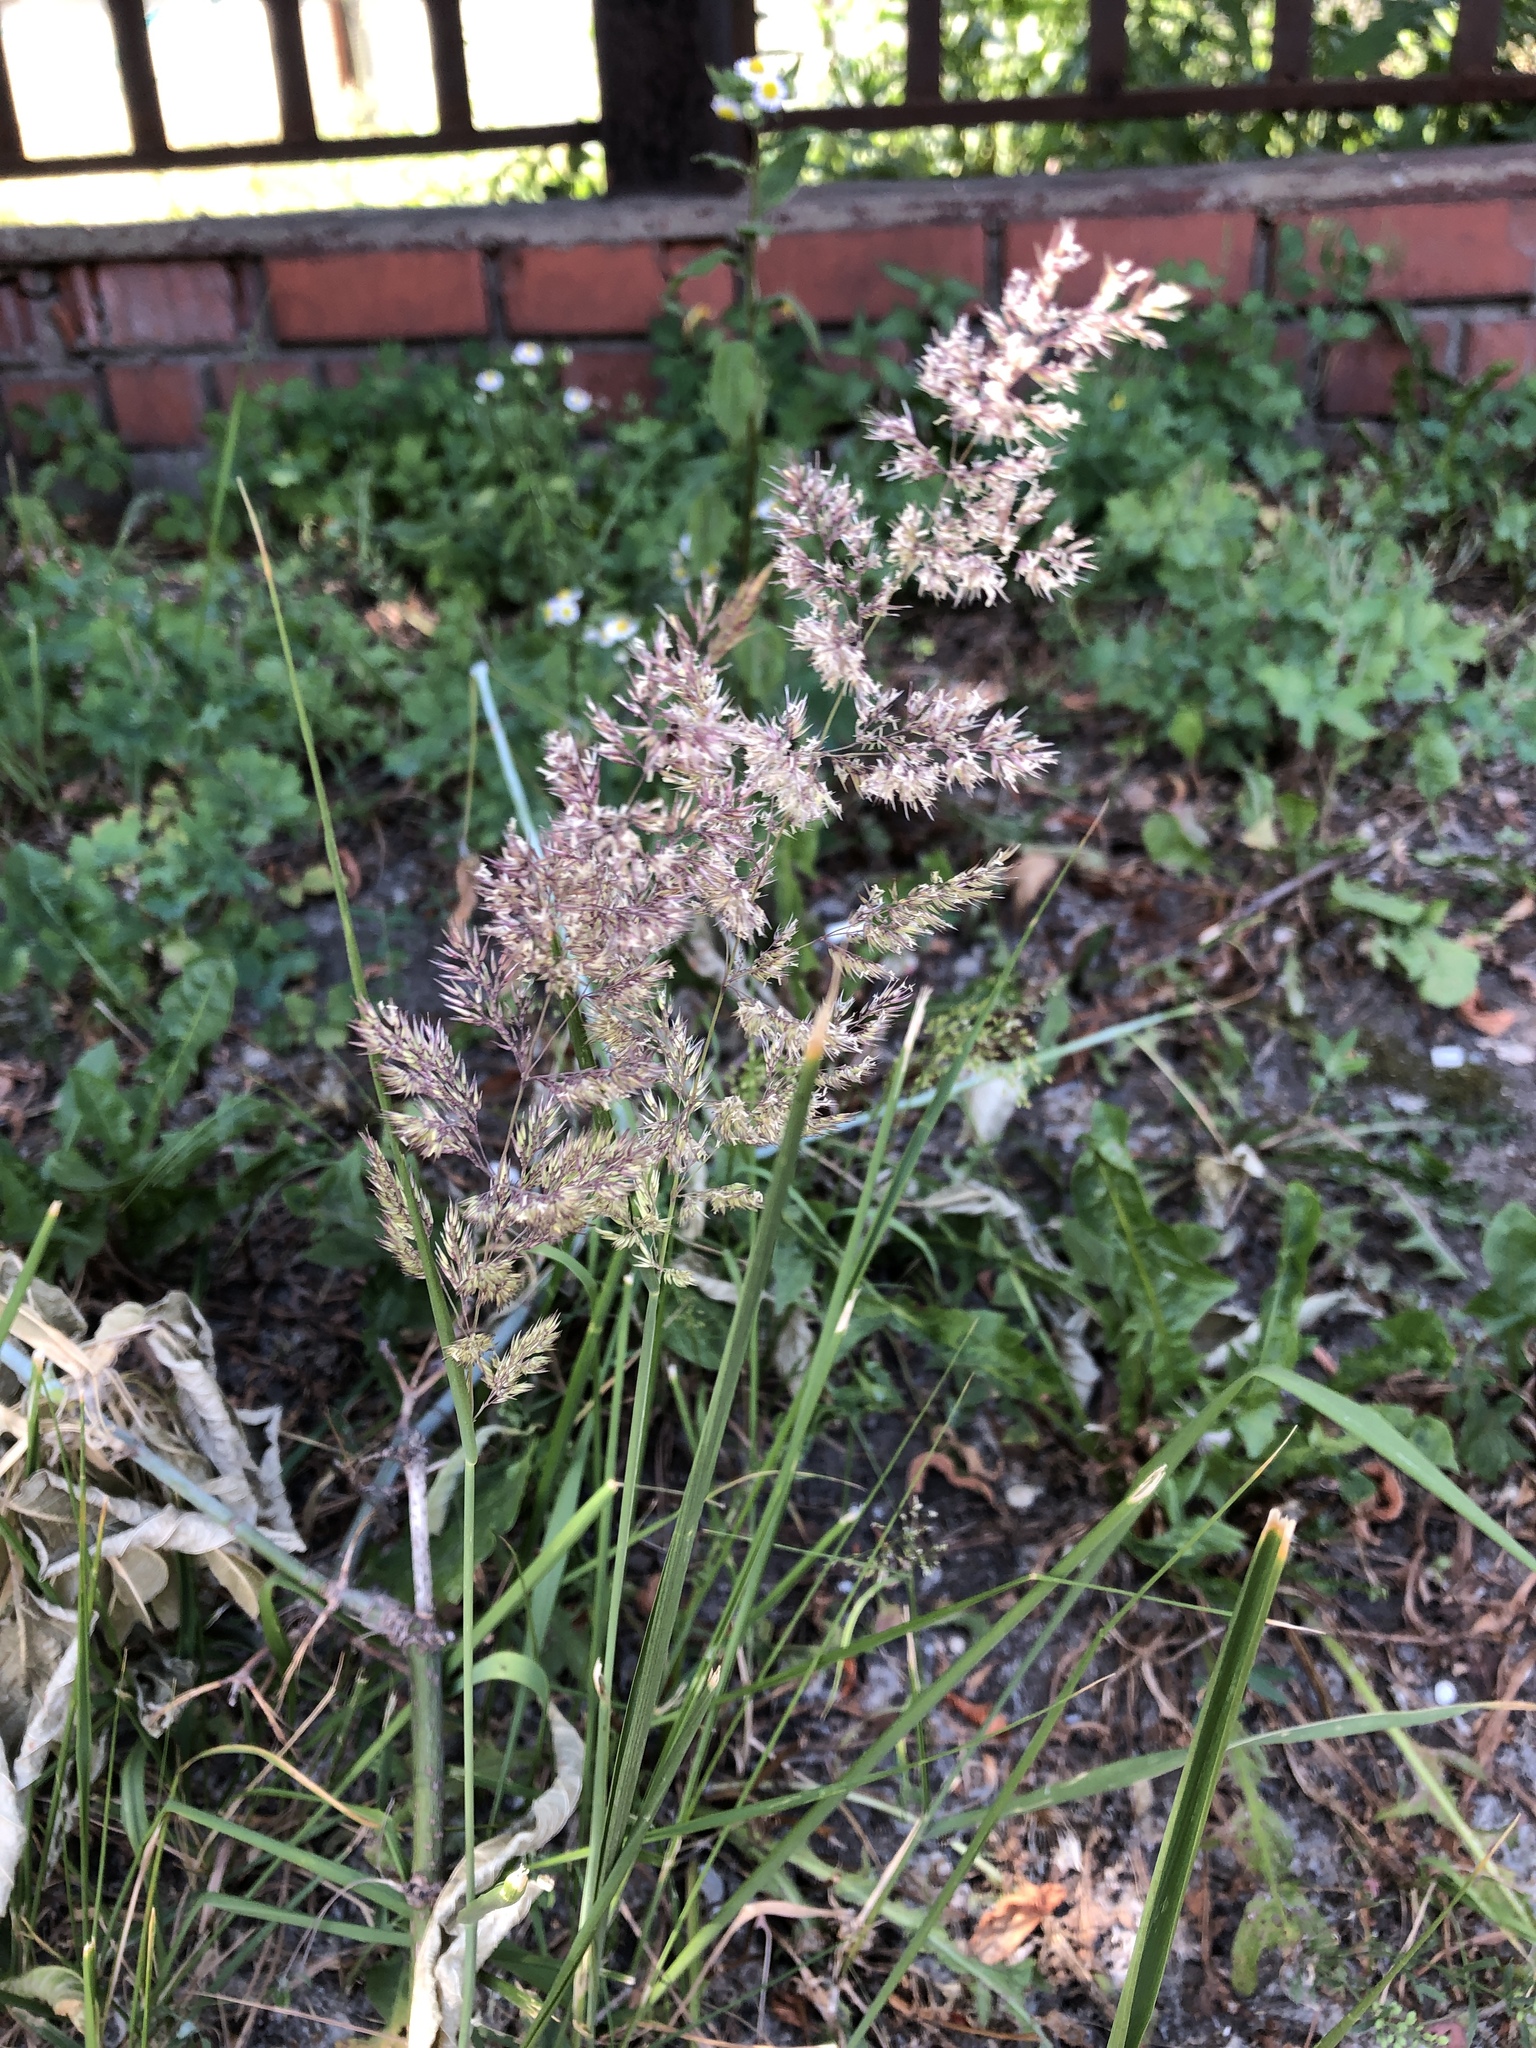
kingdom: Plantae
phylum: Tracheophyta
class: Liliopsida
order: Poales
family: Poaceae
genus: Calamagrostis
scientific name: Calamagrostis epigejos
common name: Wood small-reed
